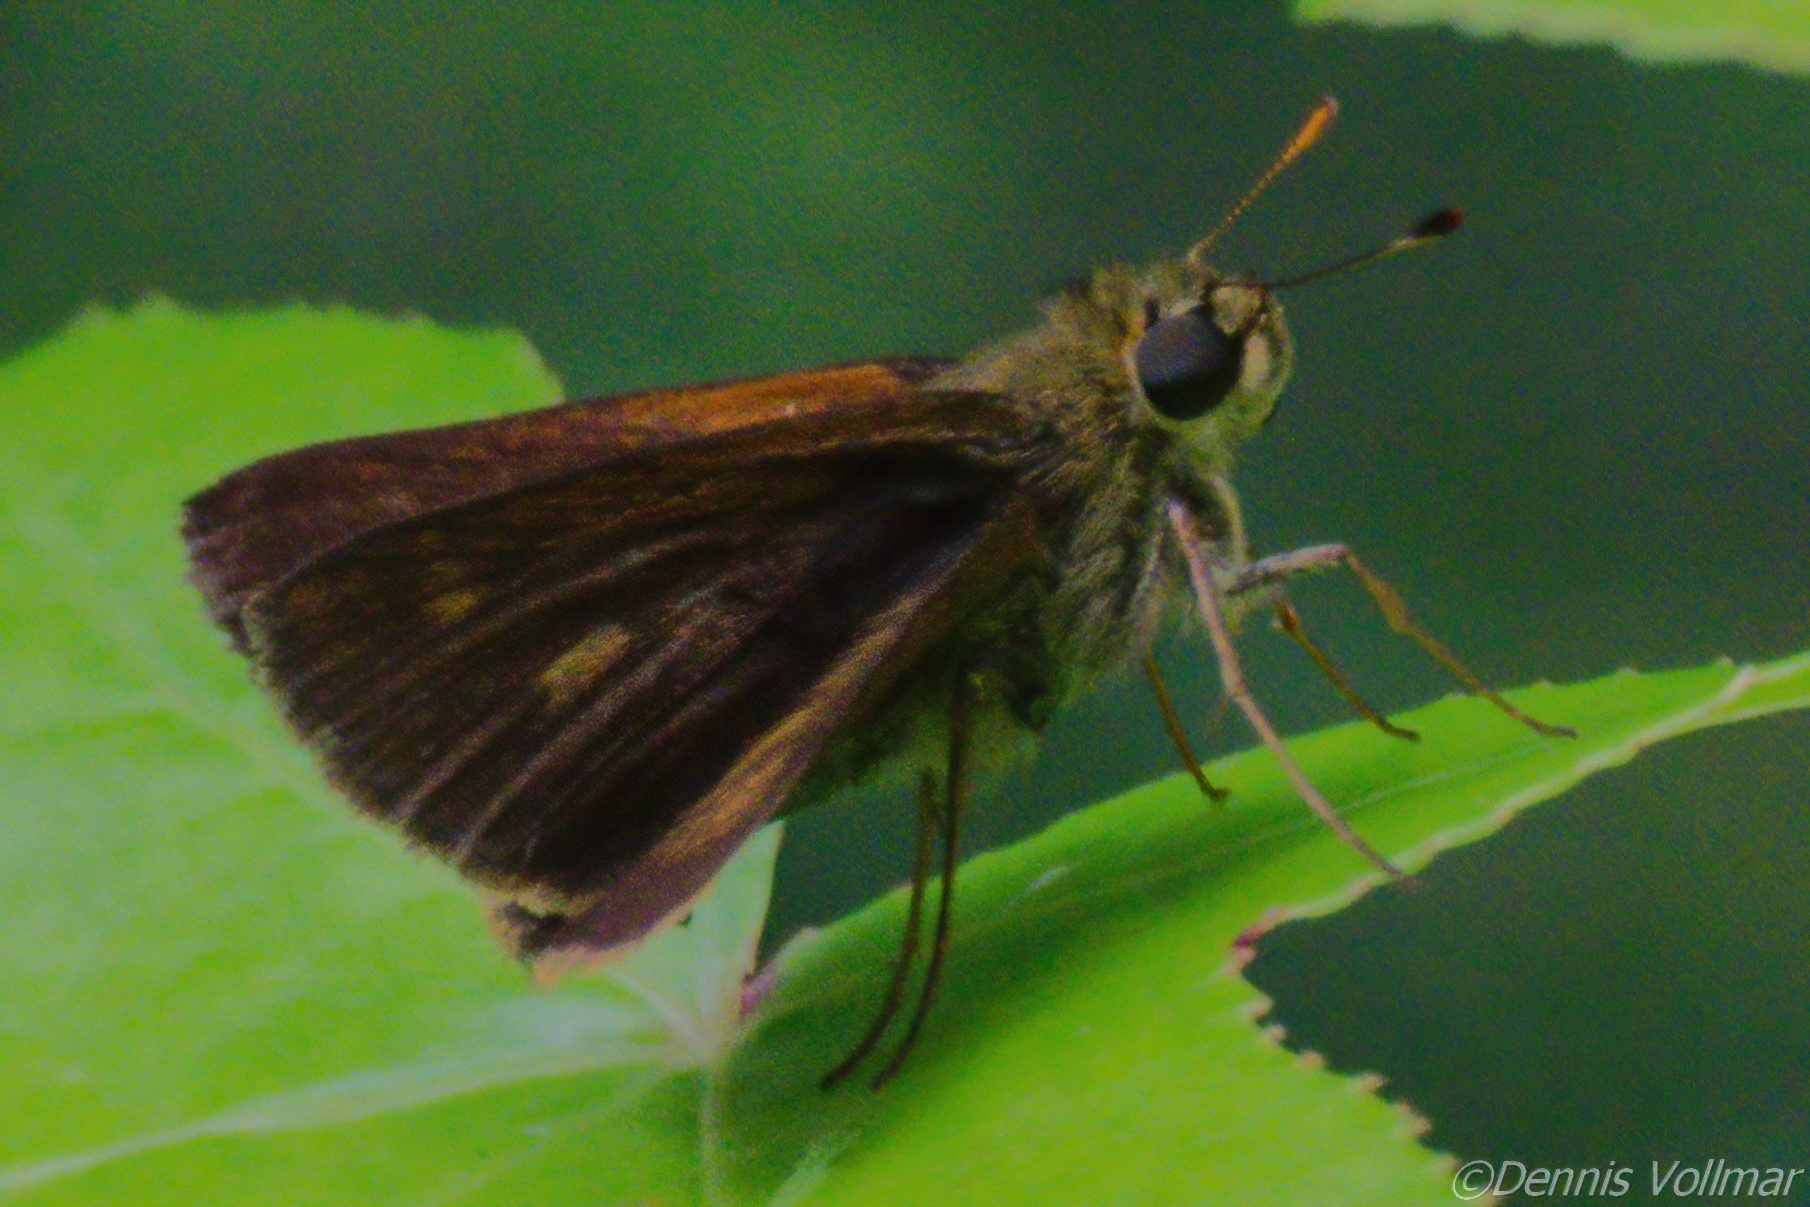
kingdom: Animalia
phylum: Arthropoda
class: Insecta
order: Lepidoptera
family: Hesperiidae
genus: Polites
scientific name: Polites egeremet
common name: Northern broken-dash
